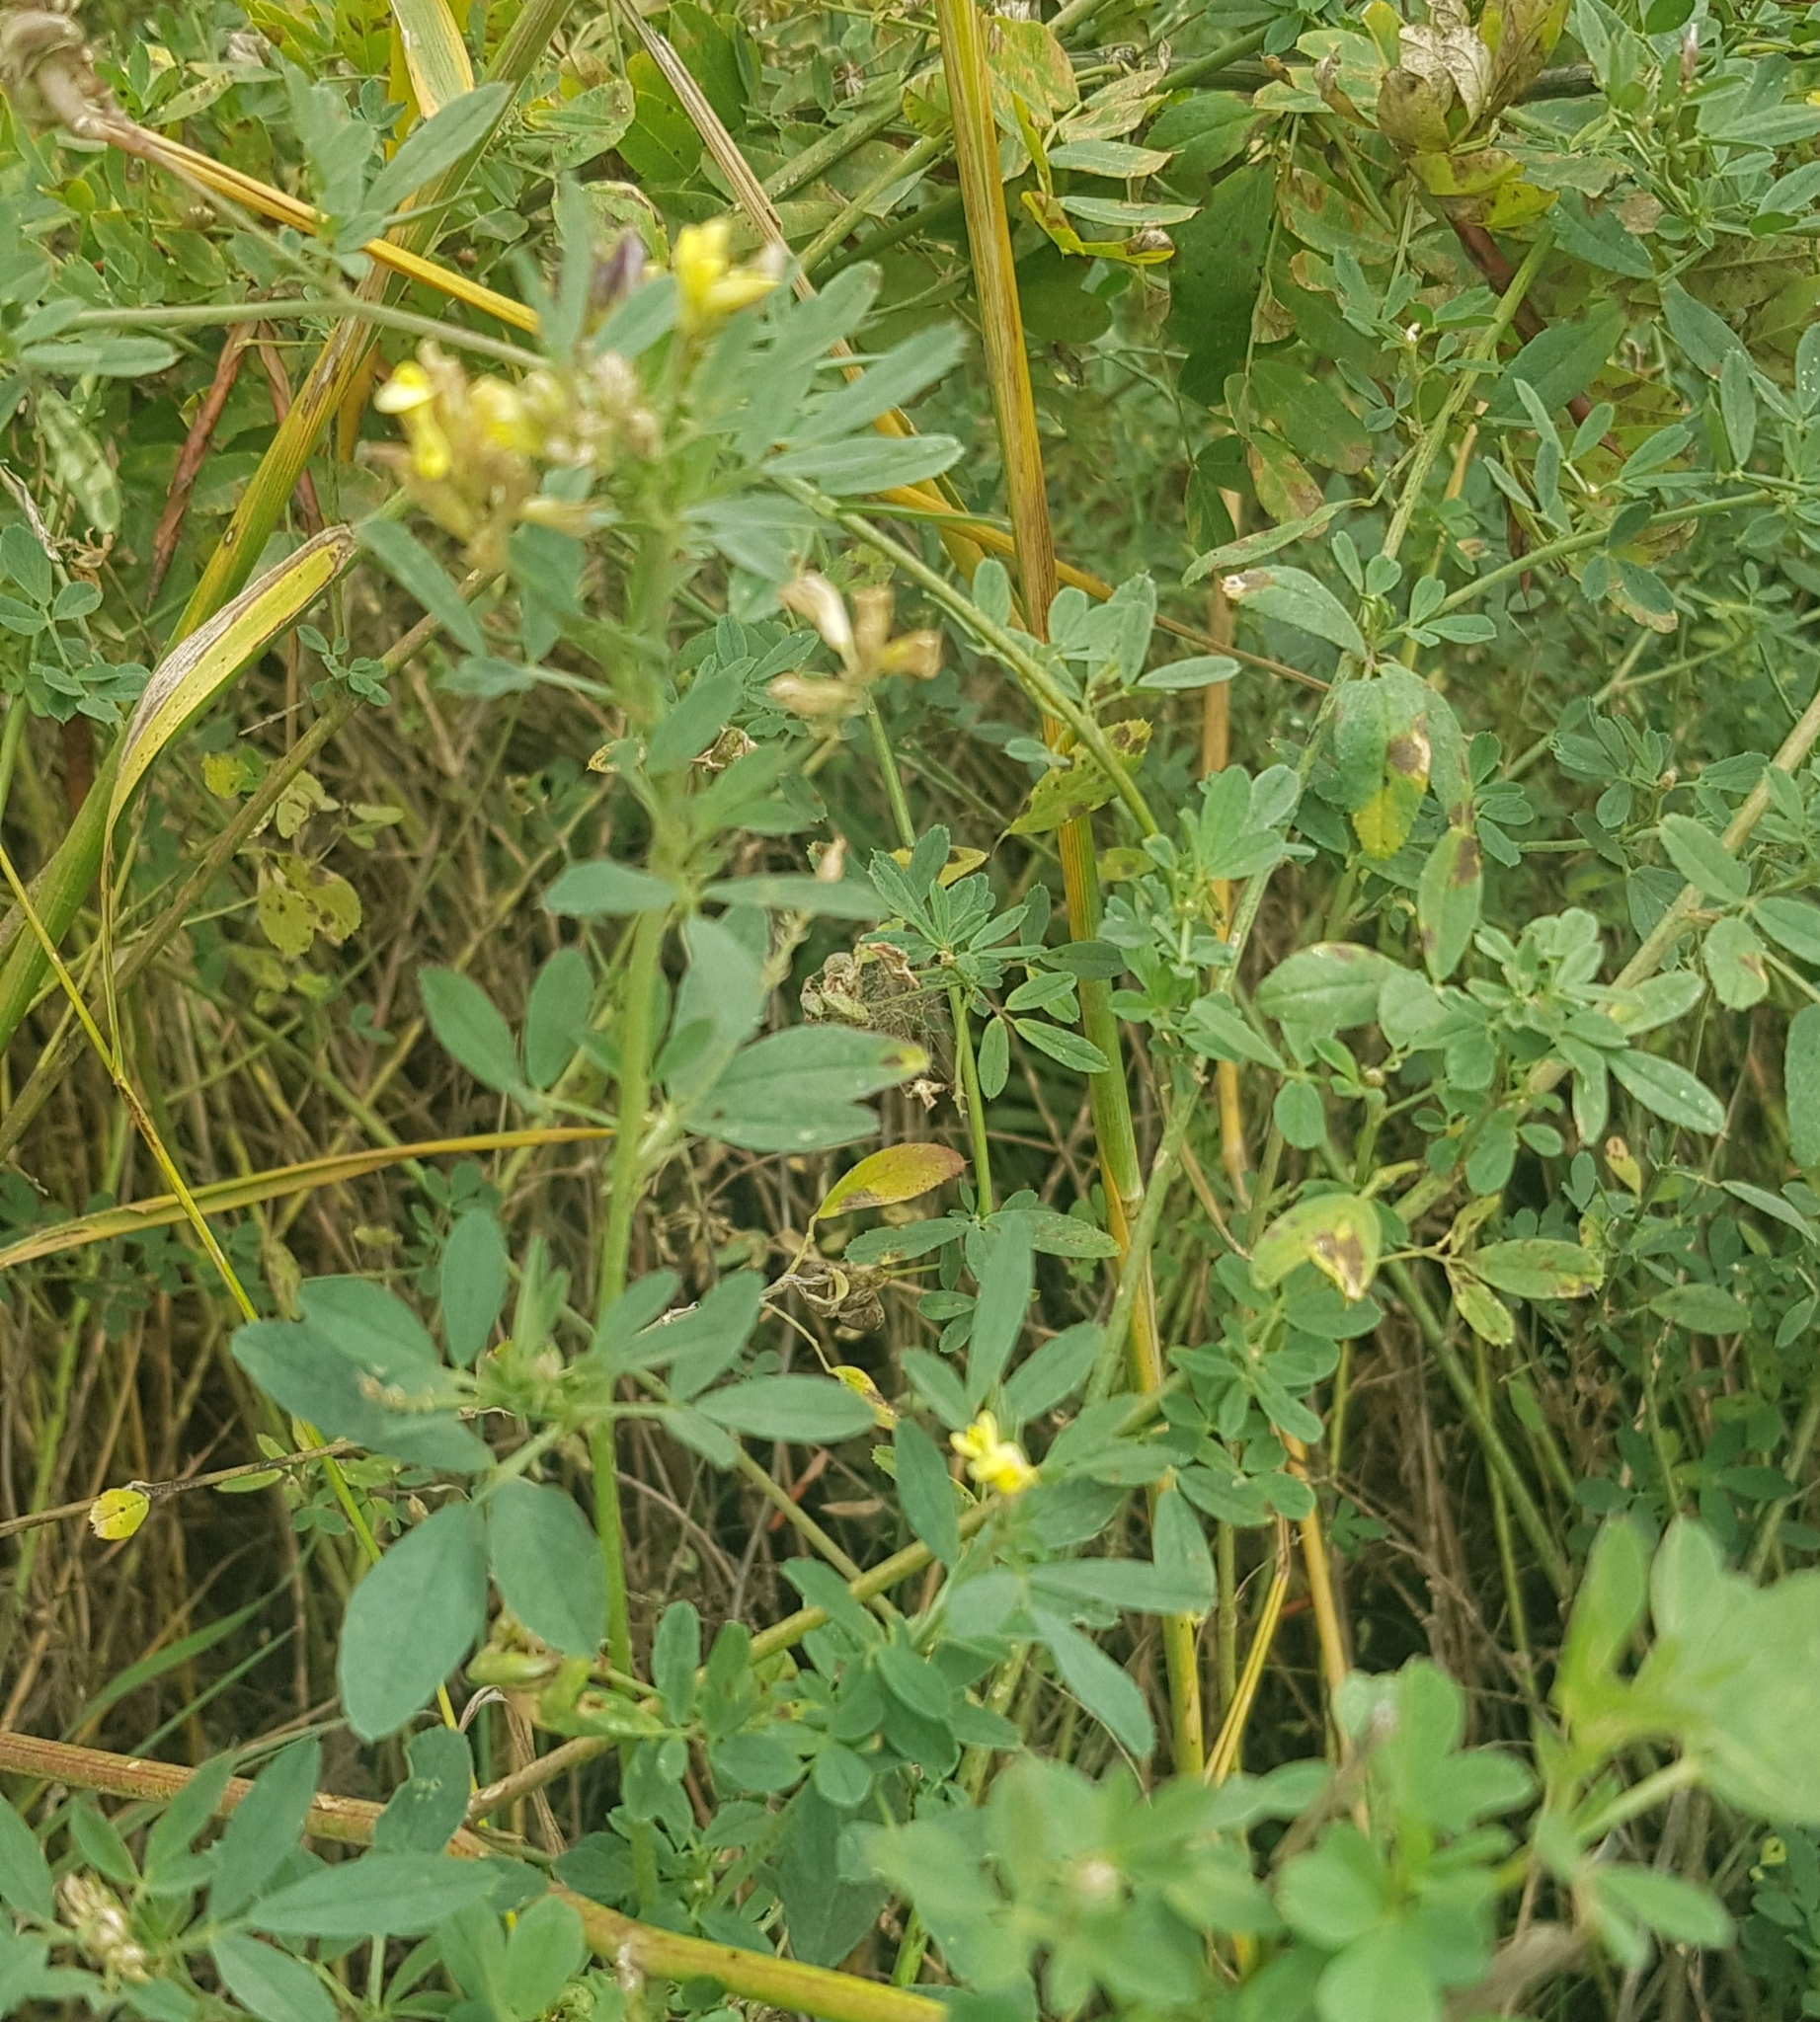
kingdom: Plantae
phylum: Tracheophyta
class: Magnoliopsida
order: Fabales
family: Fabaceae
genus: Medicago
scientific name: Medicago falcata
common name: Sickle medick
